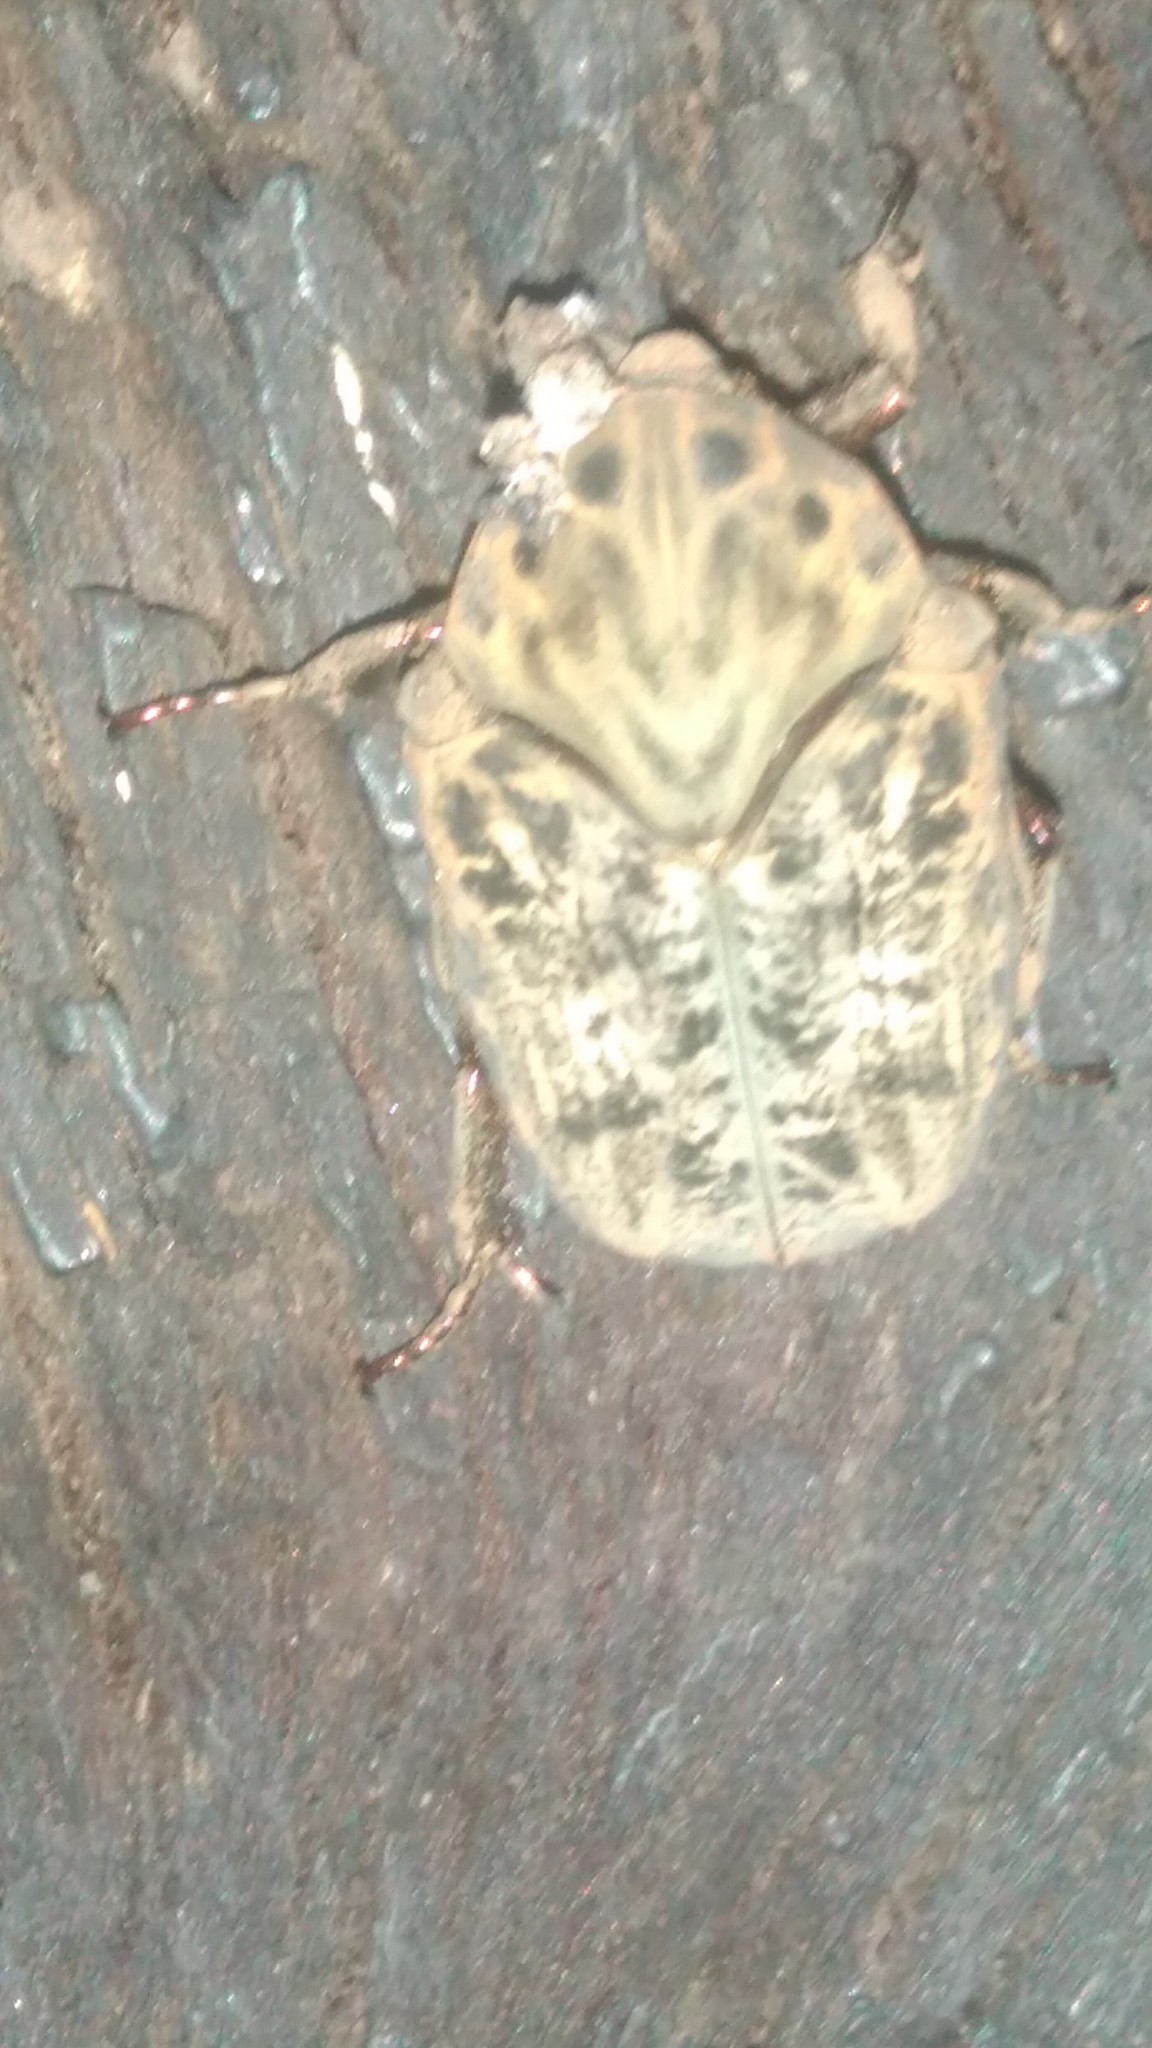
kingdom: Animalia
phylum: Arthropoda
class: Insecta
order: Coleoptera
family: Scarabaeidae
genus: Gymnetis
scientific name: Gymnetis chalcipes
